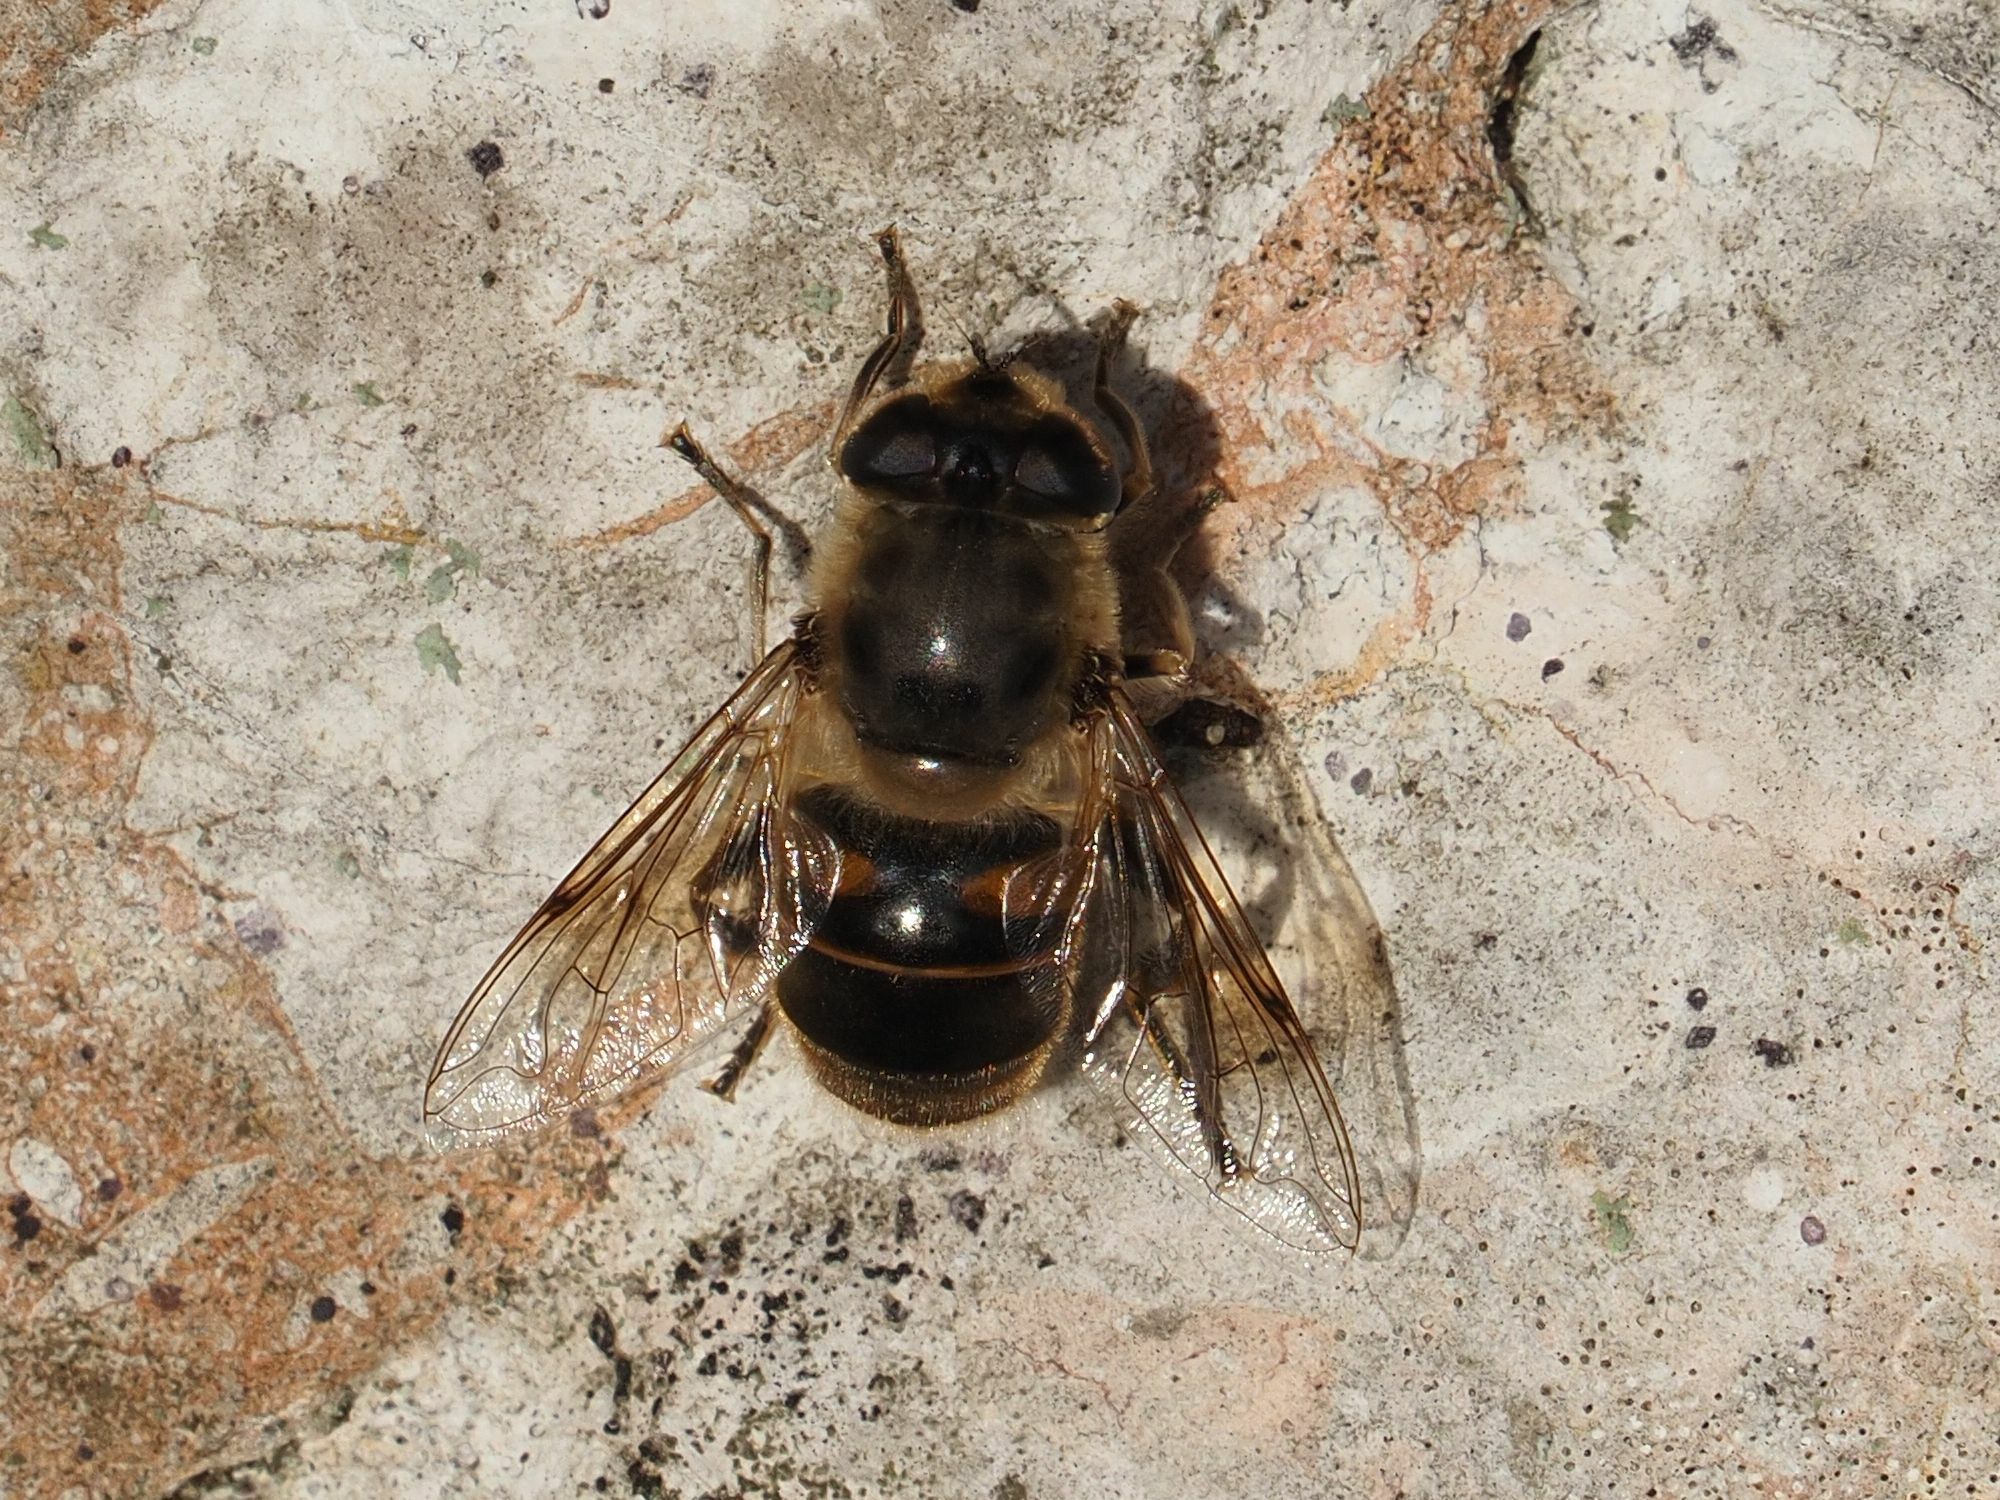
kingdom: Animalia
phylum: Arthropoda
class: Insecta
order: Diptera
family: Syrphidae
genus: Eristalis
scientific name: Eristalis tenax
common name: Drone fly
